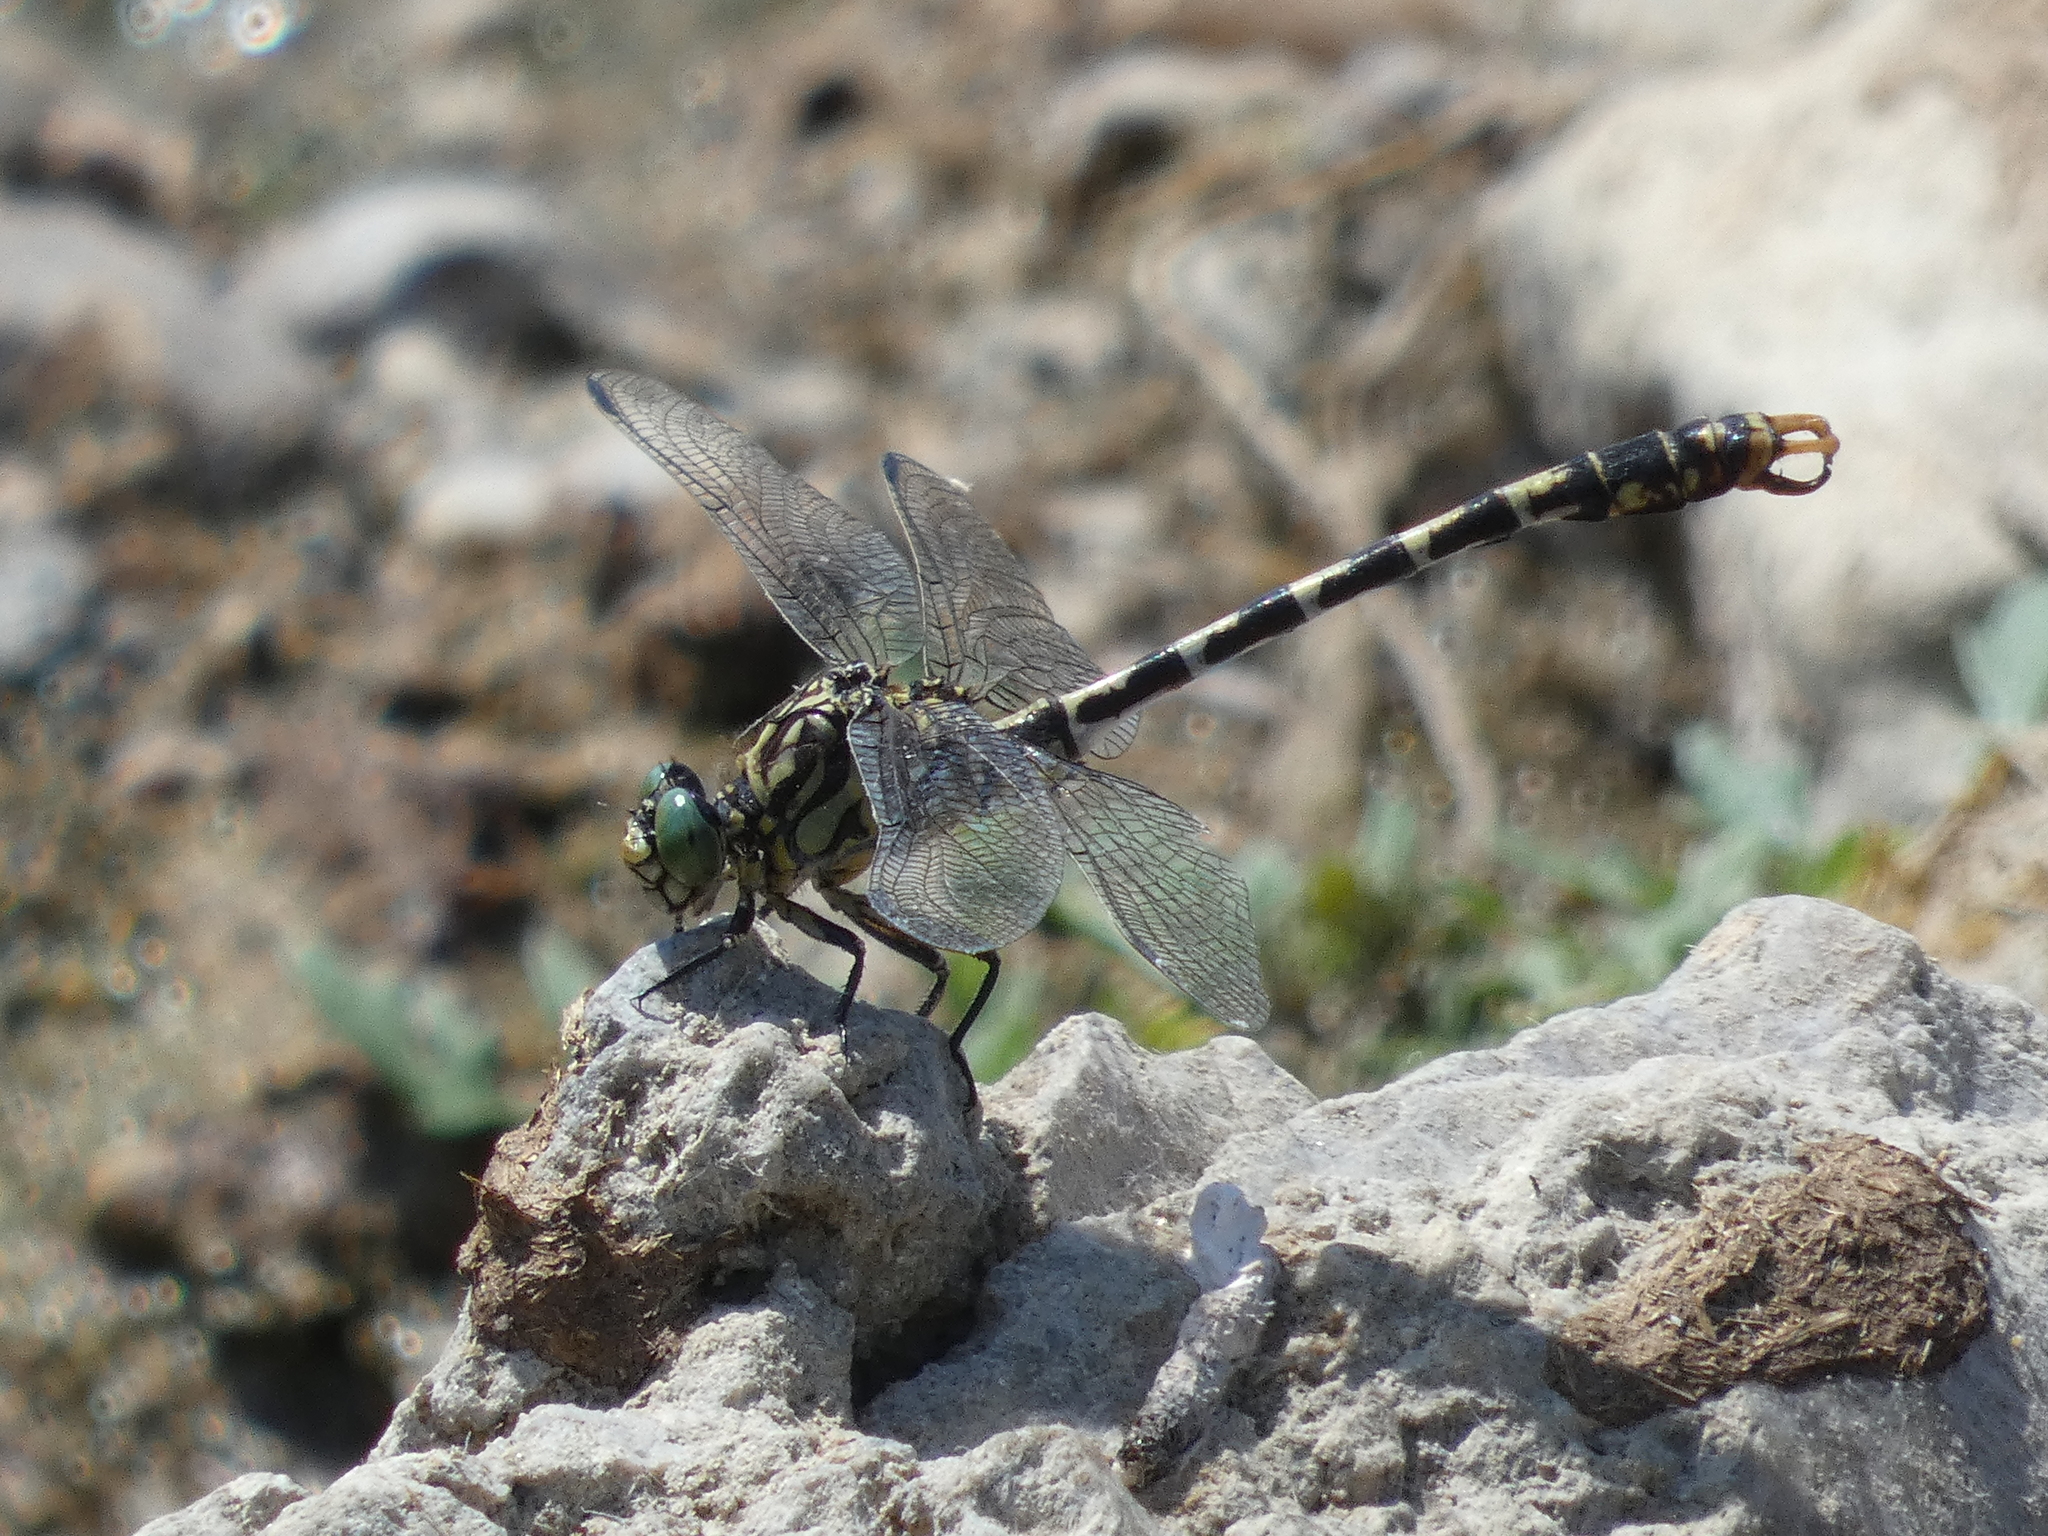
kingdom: Animalia
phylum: Arthropoda
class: Insecta
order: Odonata
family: Gomphidae
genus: Onychogomphus
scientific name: Onychogomphus forcipatus
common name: Small pincertail
